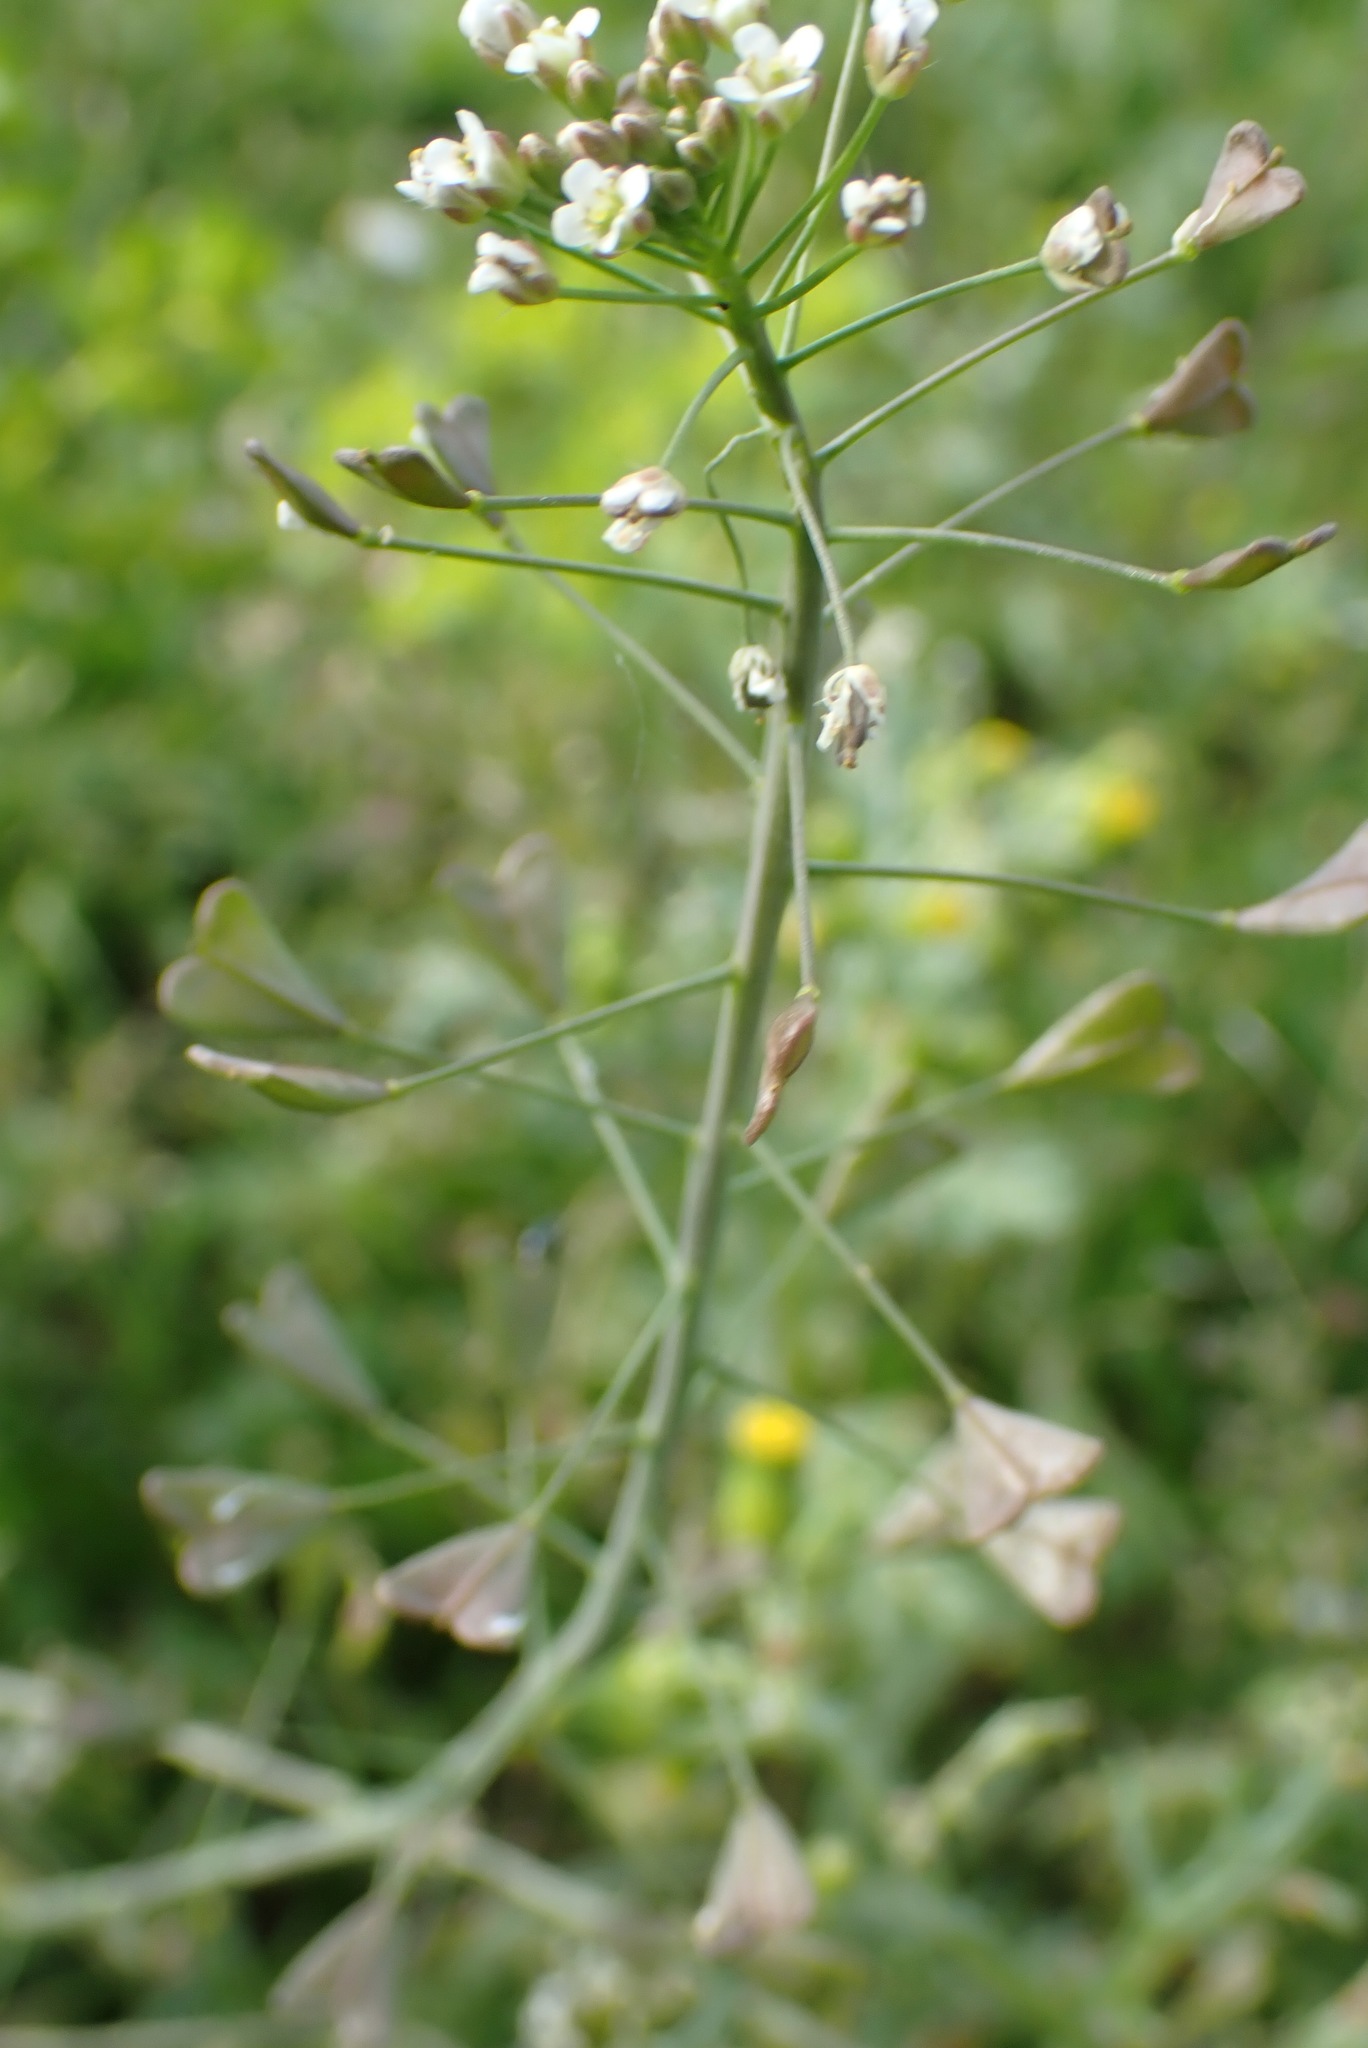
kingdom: Plantae
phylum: Tracheophyta
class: Magnoliopsida
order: Brassicales
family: Brassicaceae
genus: Capsella
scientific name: Capsella bursa-pastoris
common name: Shepherd's purse
